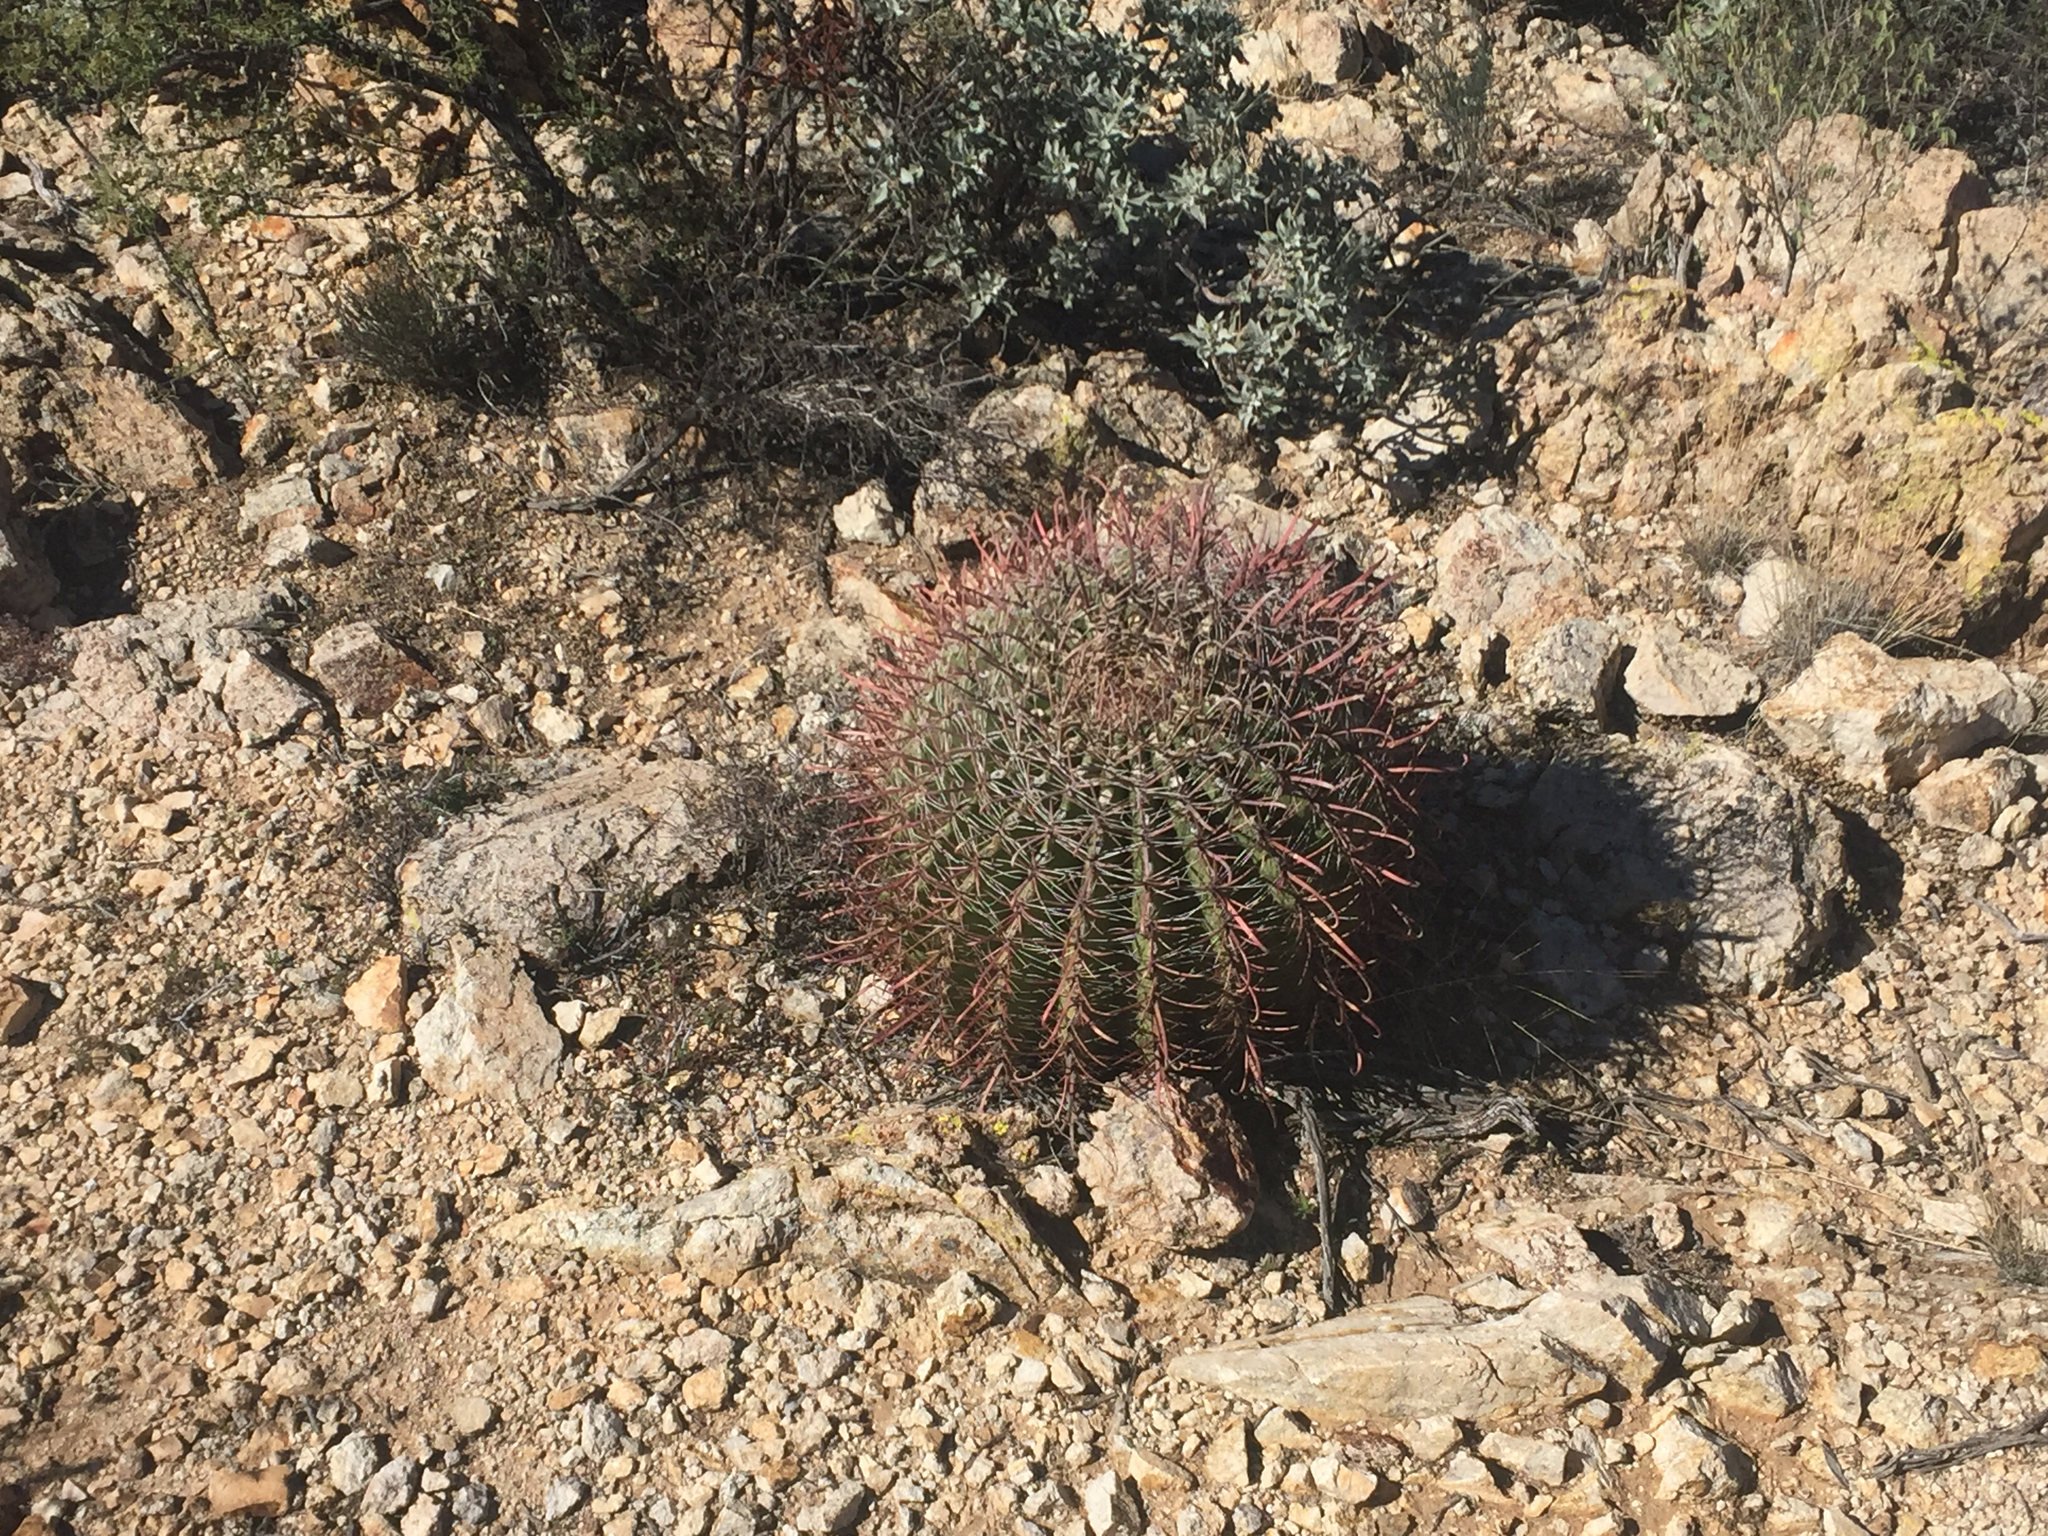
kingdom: Plantae
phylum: Tracheophyta
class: Magnoliopsida
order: Caryophyllales
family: Cactaceae
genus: Ferocactus
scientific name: Ferocactus wislizeni
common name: Candy barrel cactus
